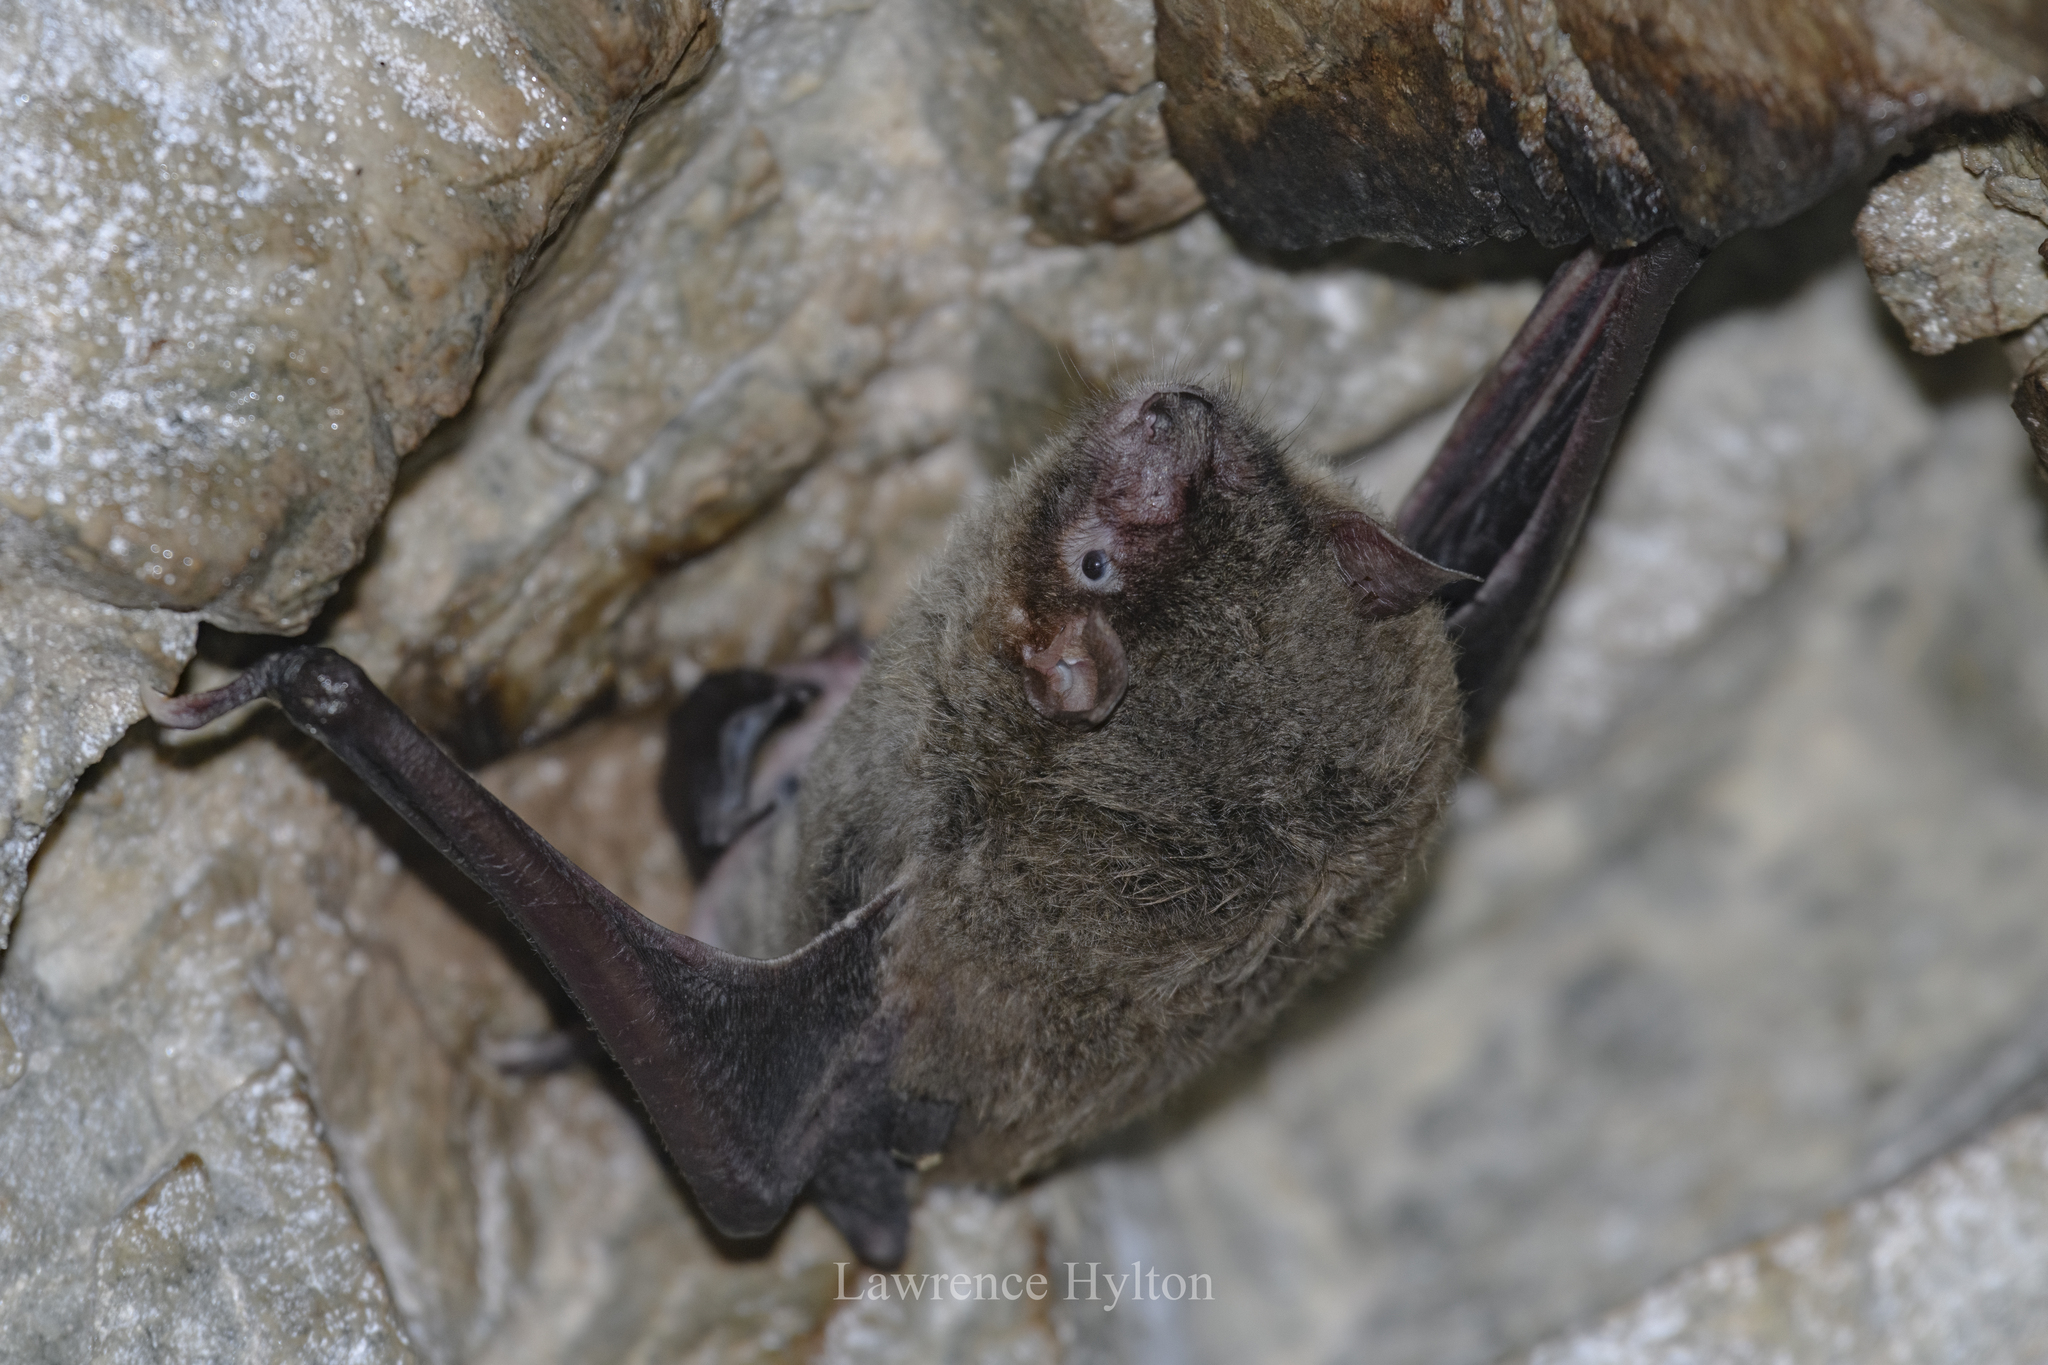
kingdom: Animalia
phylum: Chordata
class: Mammalia
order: Chiroptera
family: Vespertilionidae
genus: Myotis
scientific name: Myotis chinensis
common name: Large myotis
